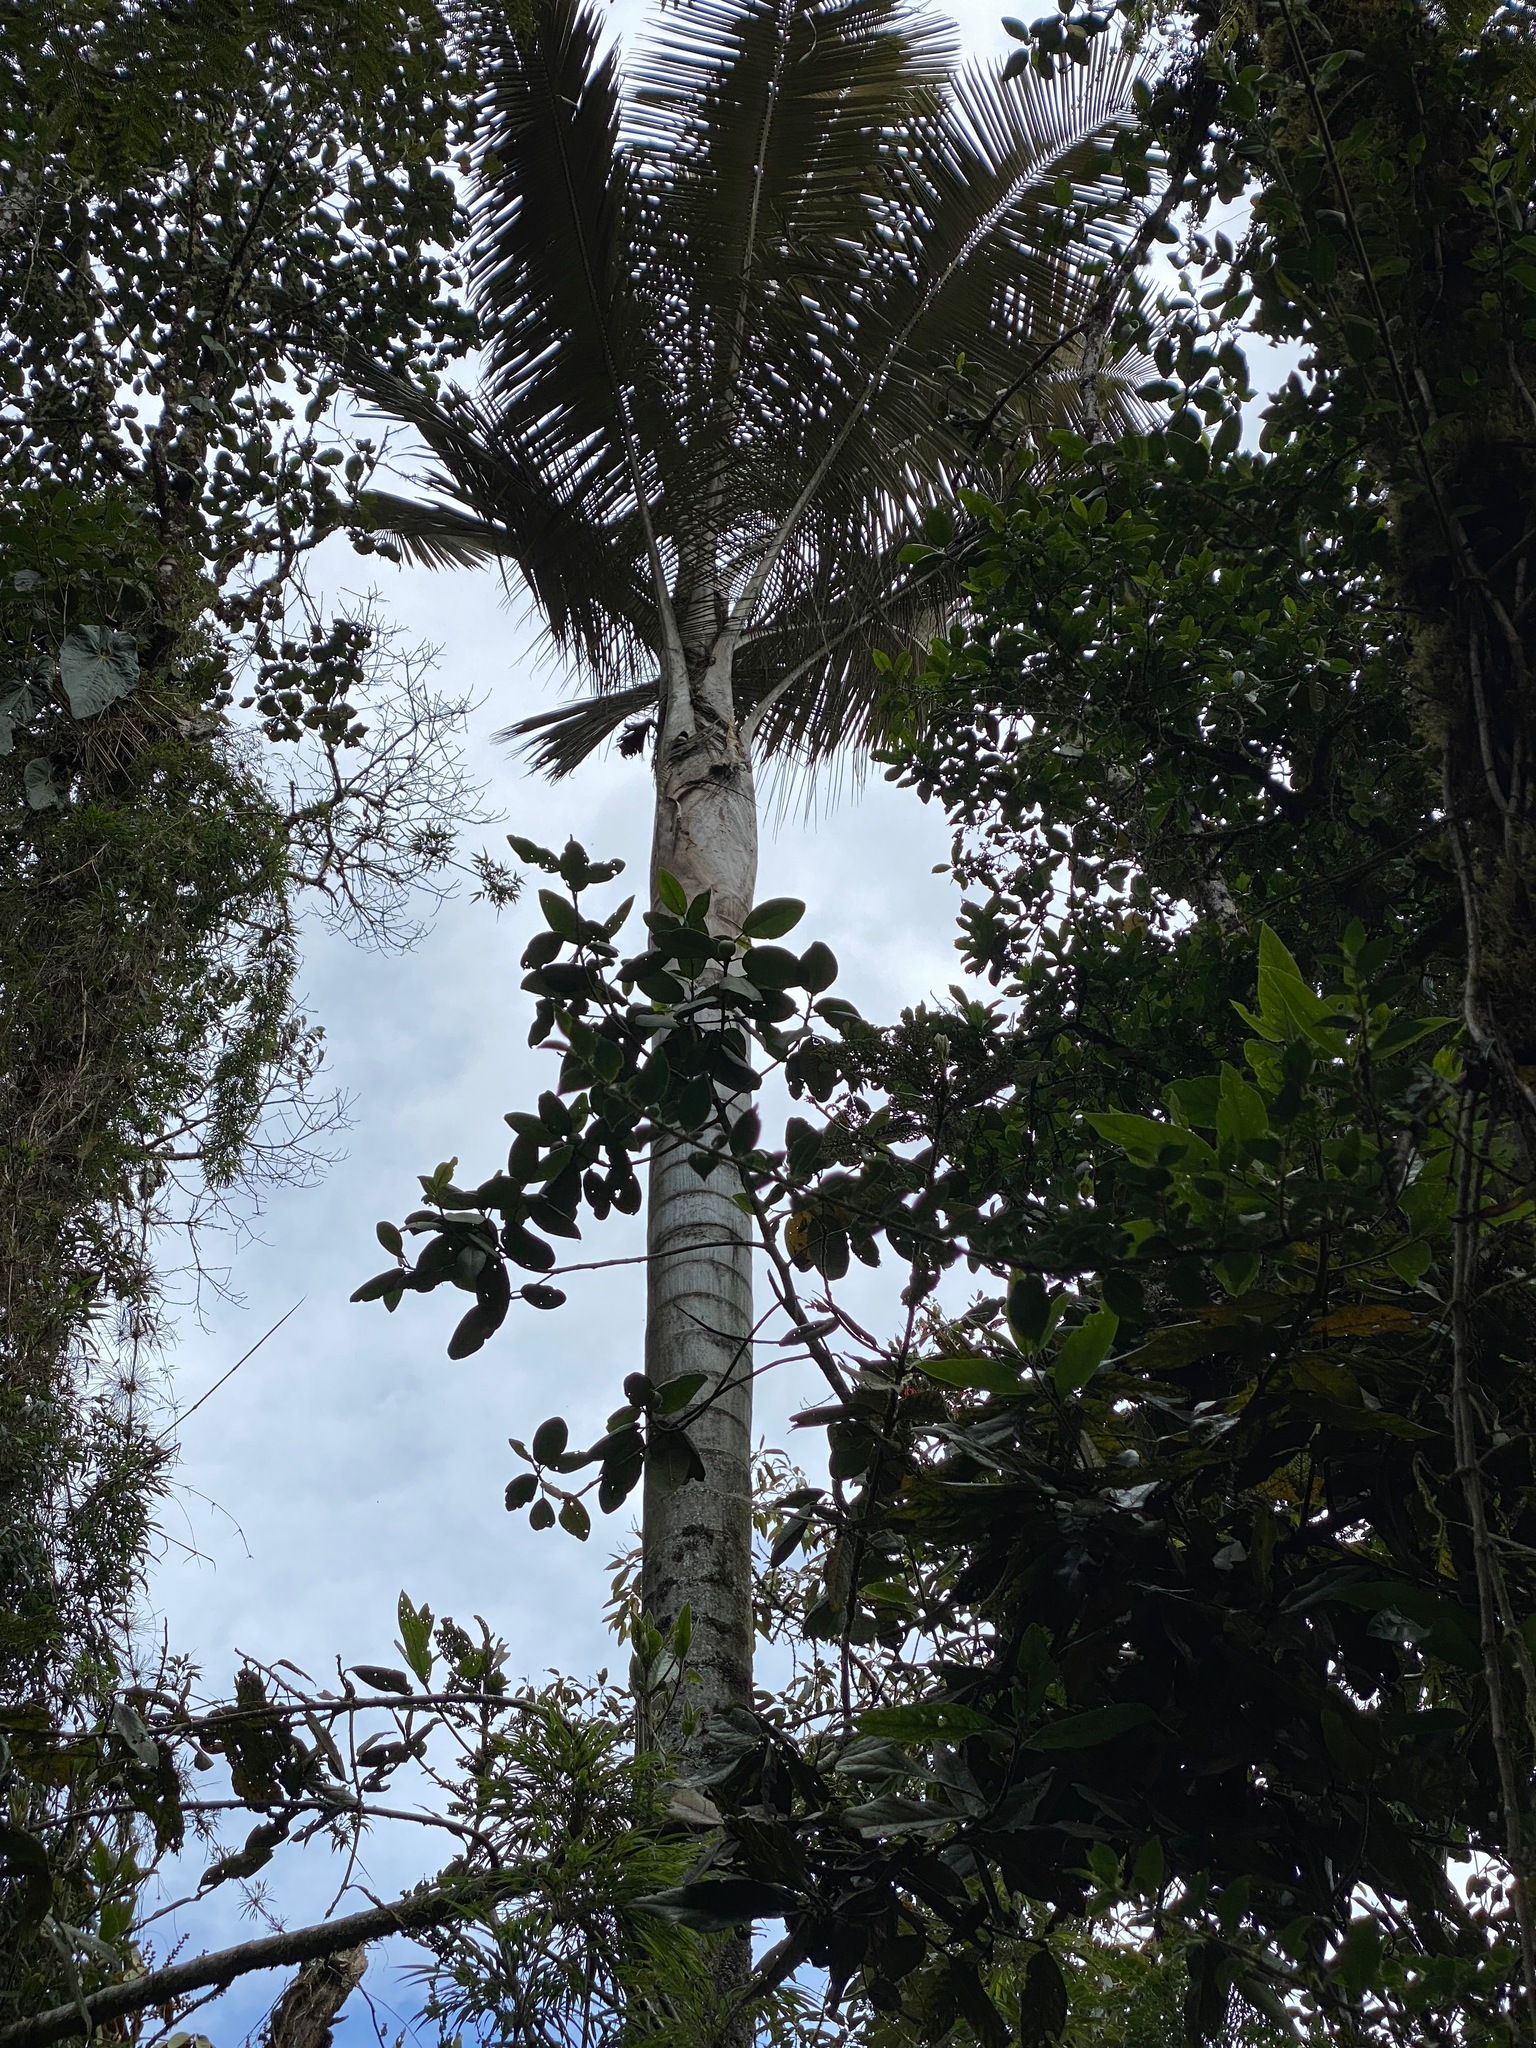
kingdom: Plantae
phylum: Tracheophyta
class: Liliopsida
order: Arecales
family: Arecaceae
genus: Ceroxylon
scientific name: Ceroxylon quindiuense
